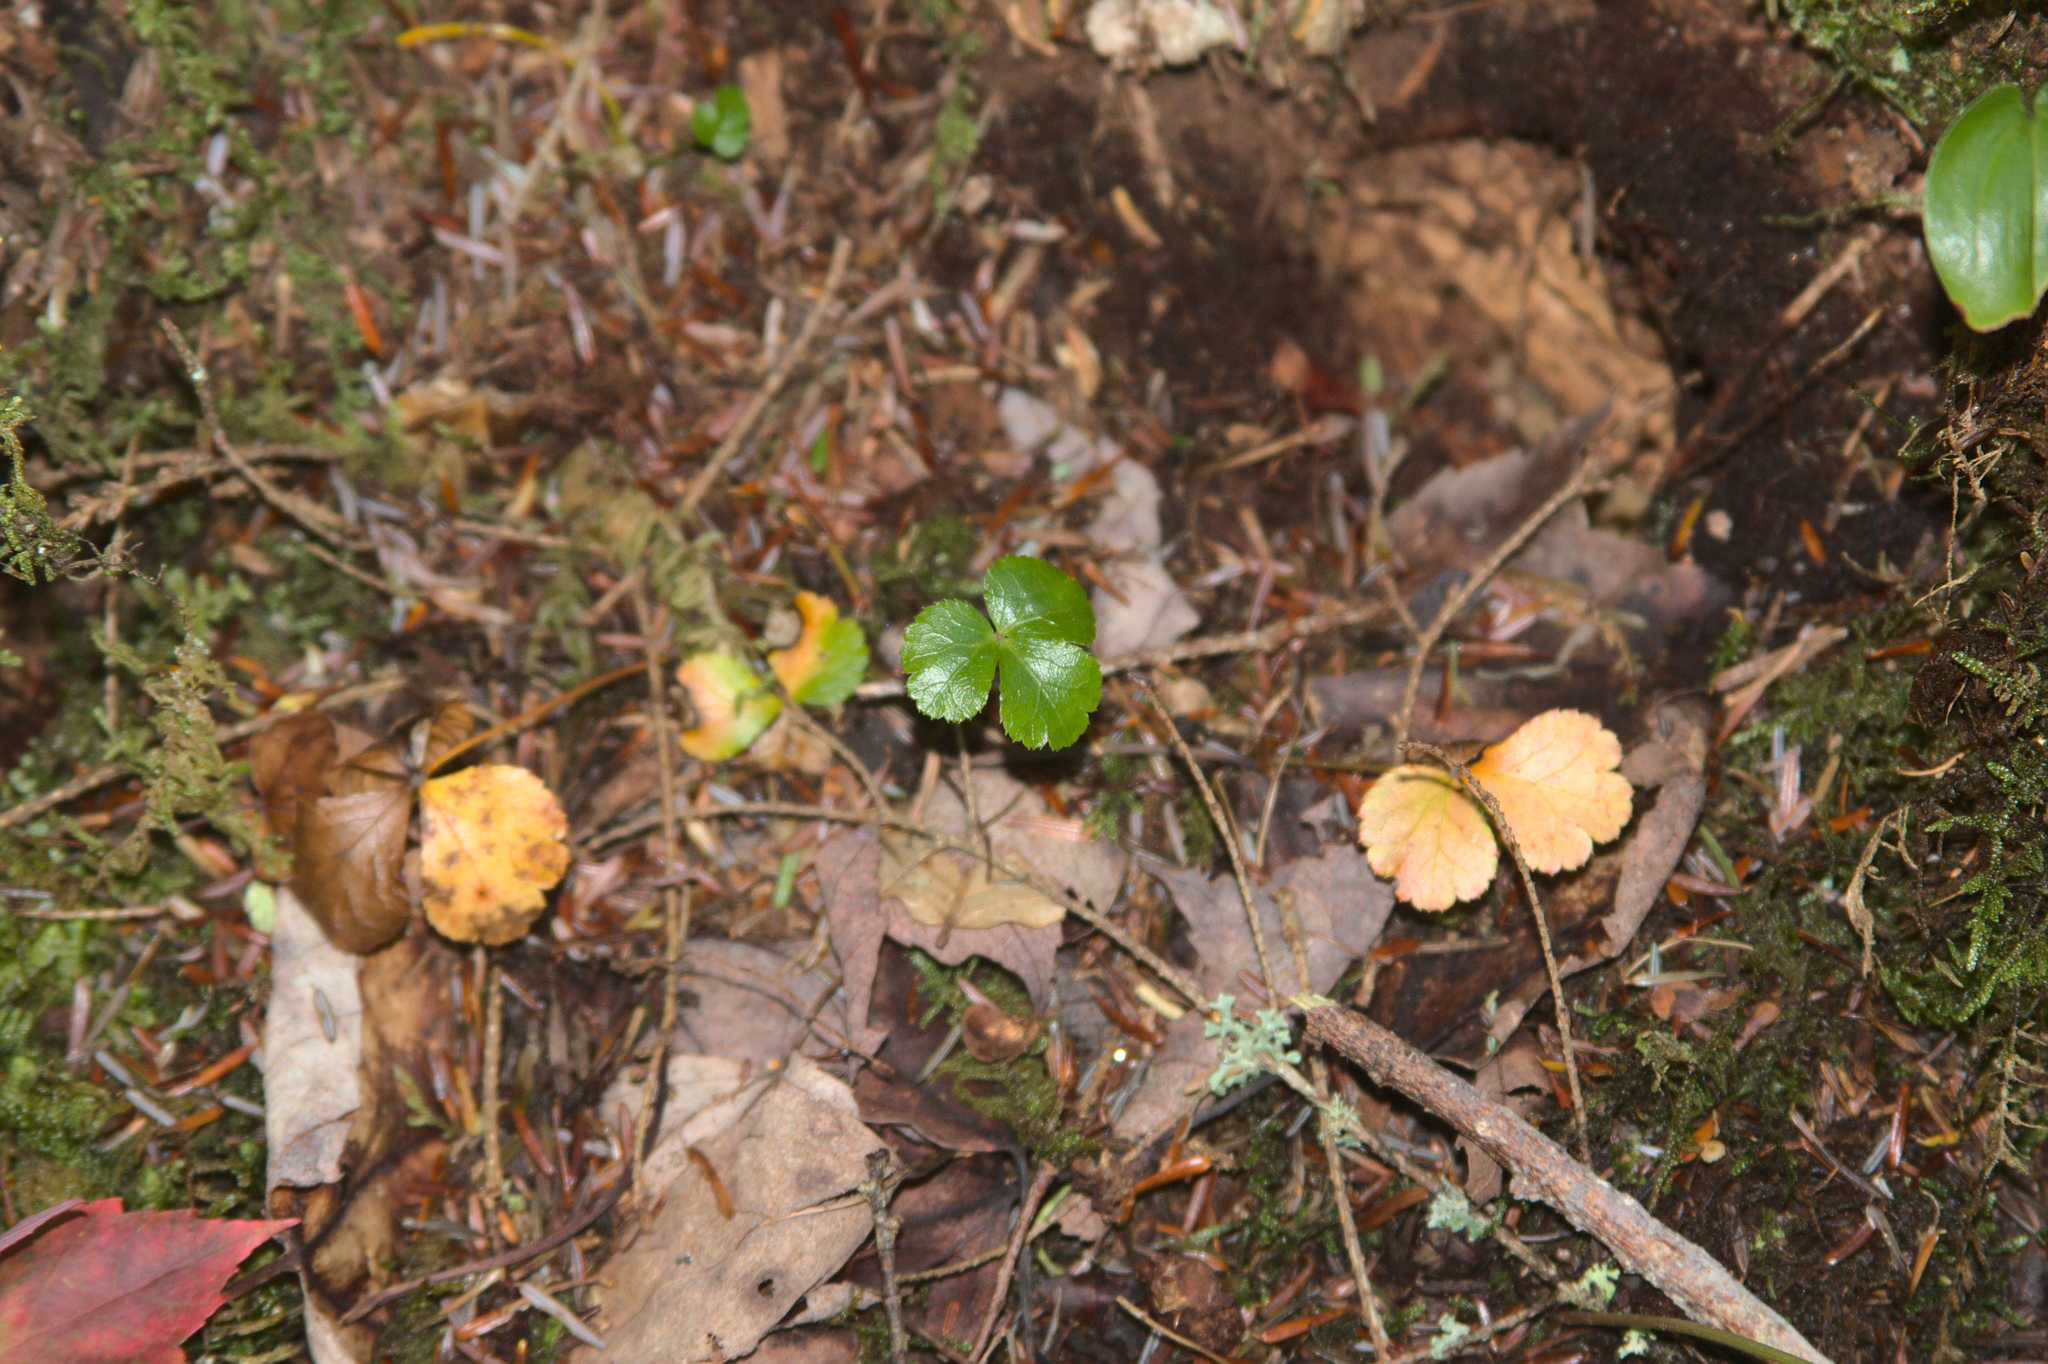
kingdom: Plantae
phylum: Tracheophyta
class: Magnoliopsida
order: Ranunculales
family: Ranunculaceae
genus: Coptis
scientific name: Coptis trifolia
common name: Canker-root
